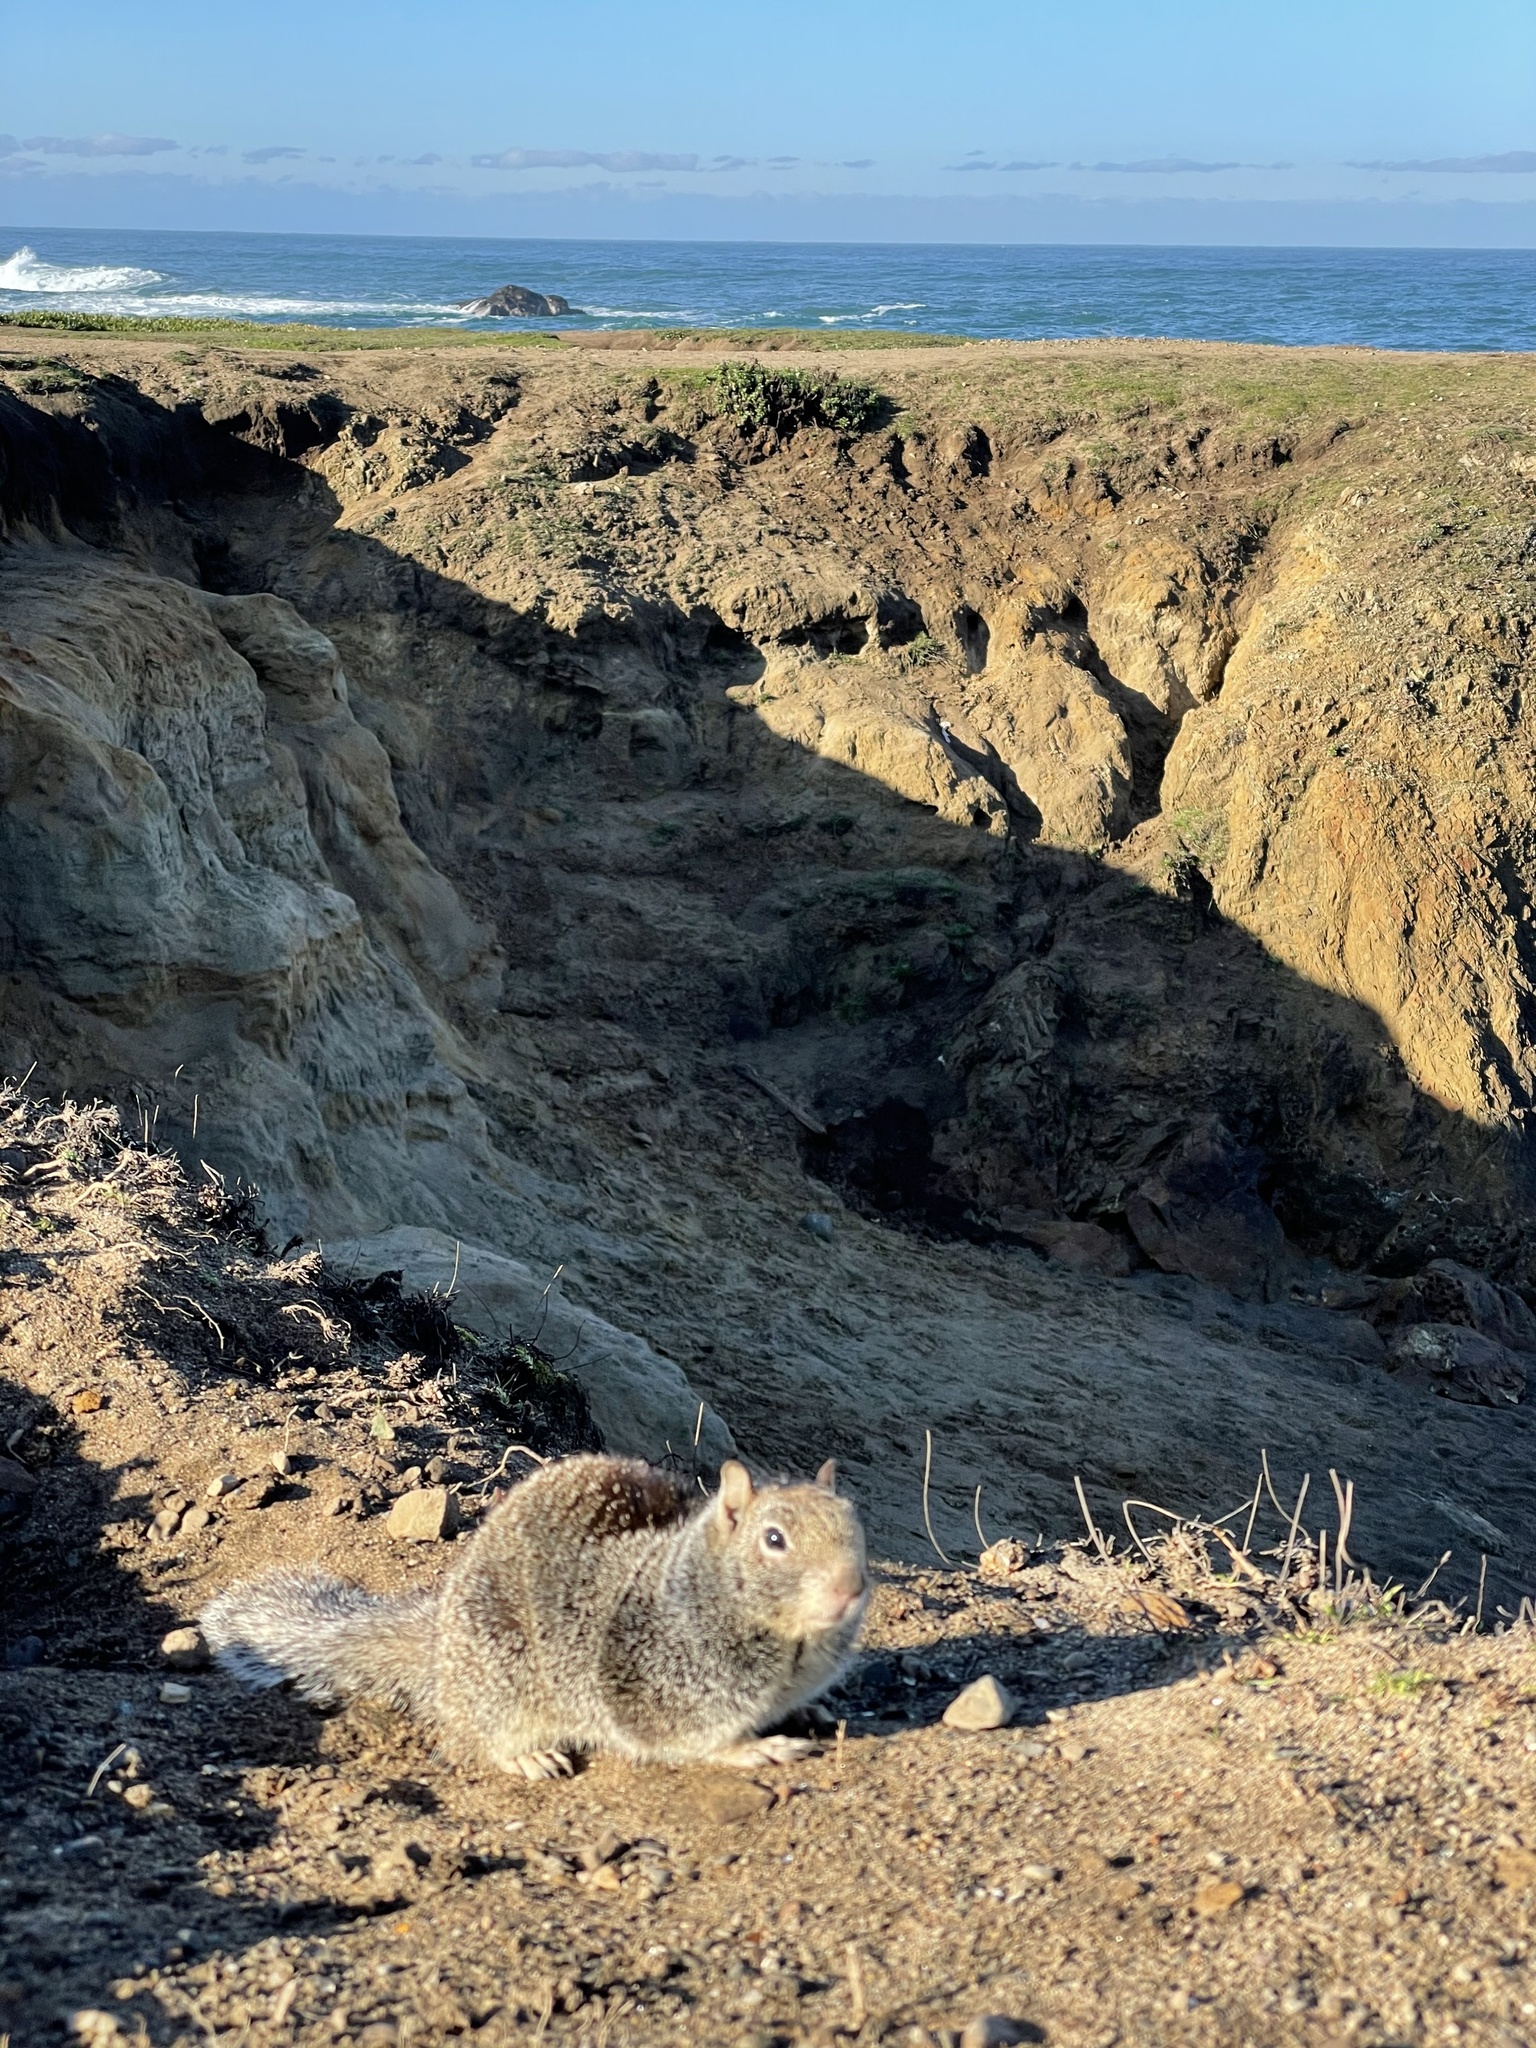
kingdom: Animalia
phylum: Chordata
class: Mammalia
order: Rodentia
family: Sciuridae
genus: Otospermophilus
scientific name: Otospermophilus beecheyi
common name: California ground squirrel
